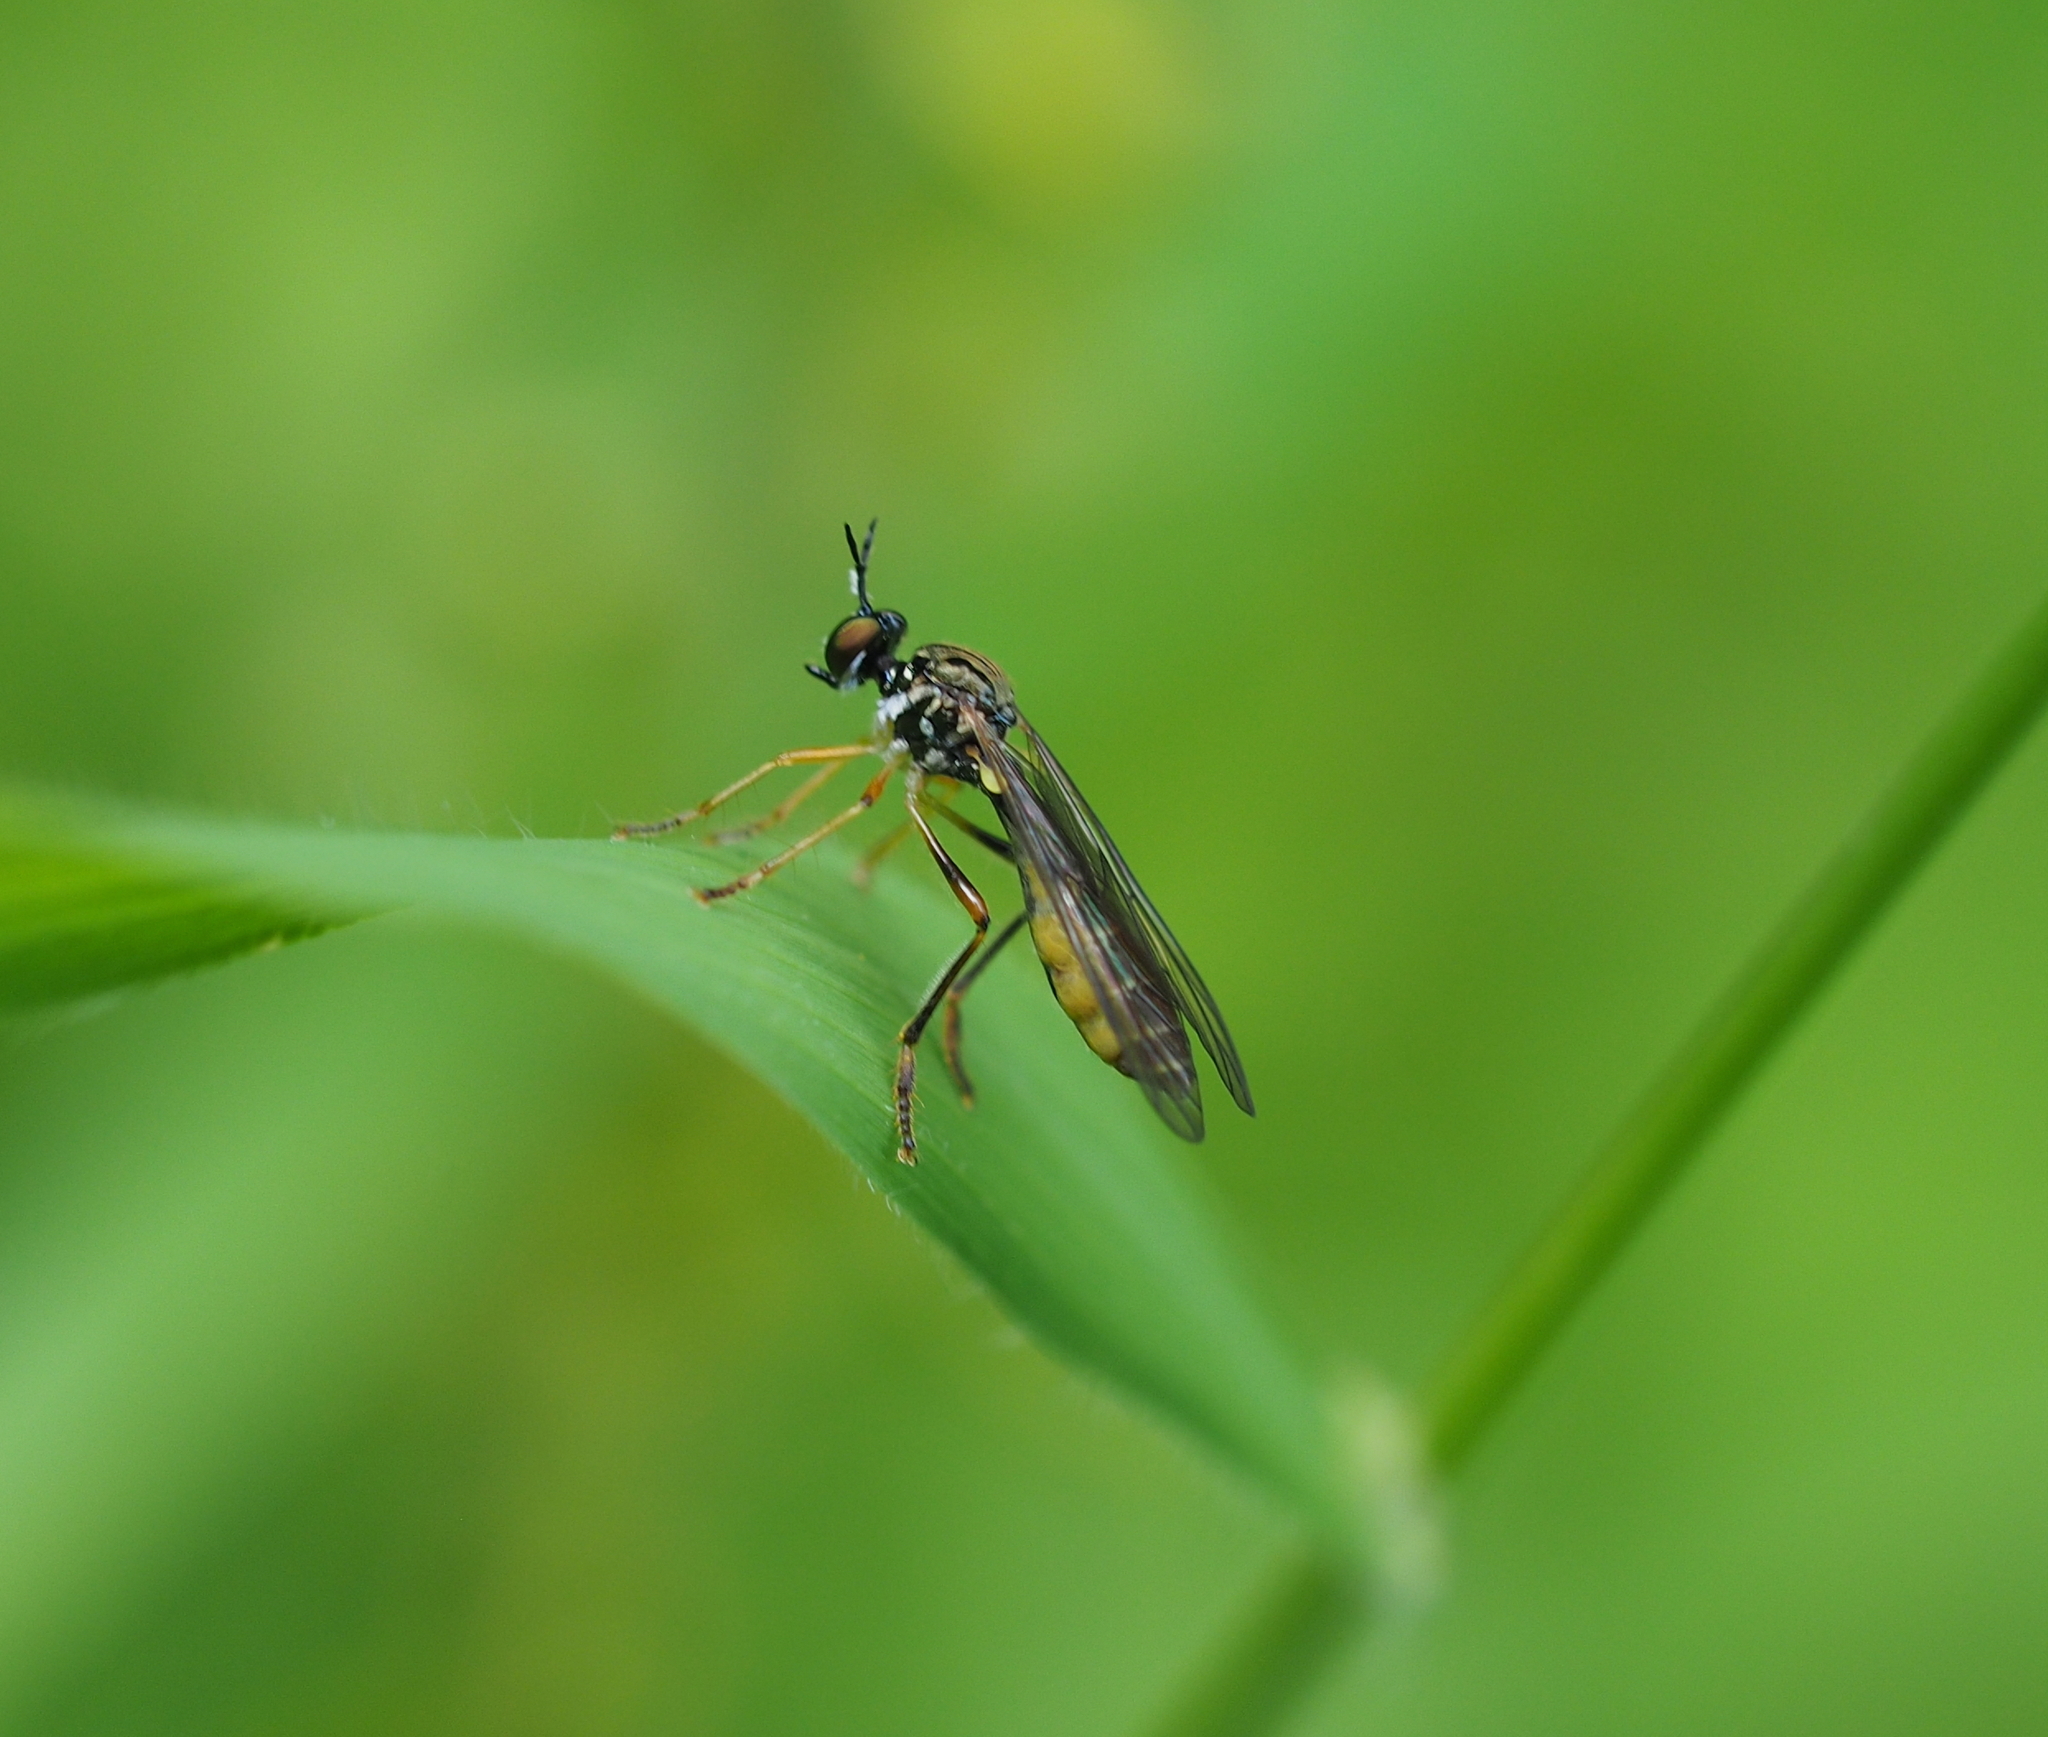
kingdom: Animalia
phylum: Arthropoda
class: Insecta
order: Diptera
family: Asilidae
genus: Dioctria
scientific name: Dioctria linearis
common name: Small yellow-legged robberfly
